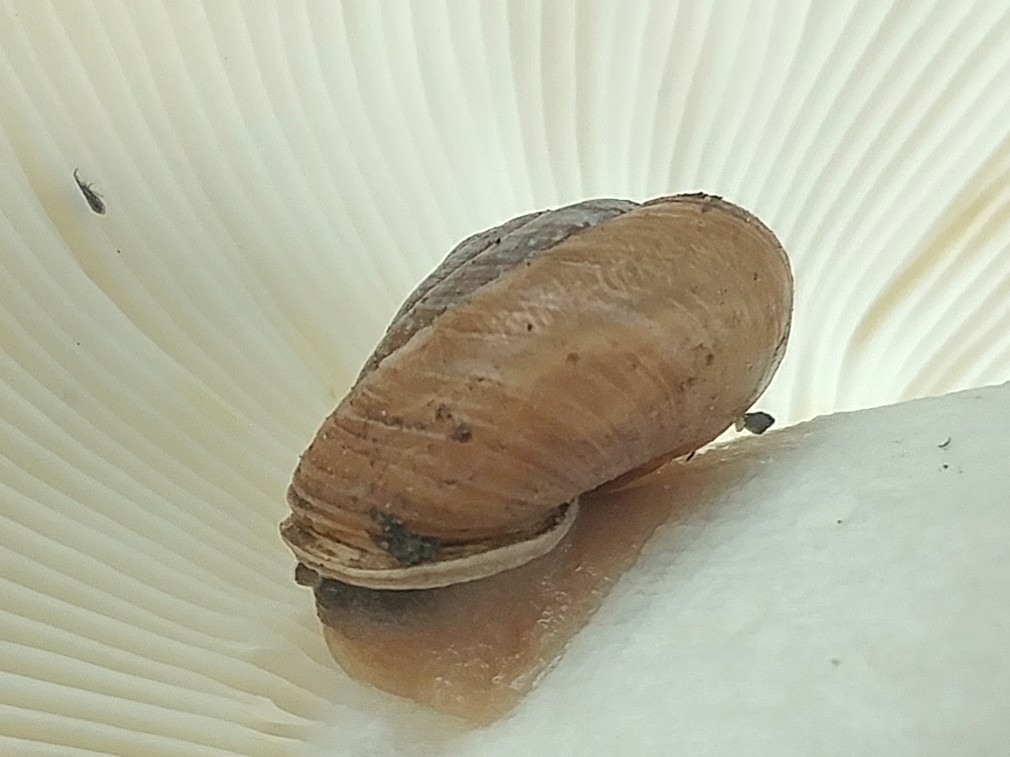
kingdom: Animalia
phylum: Mollusca
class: Gastropoda
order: Stylommatophora
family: Polygyridae
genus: Ashmunella
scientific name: Ashmunella rhyssa
